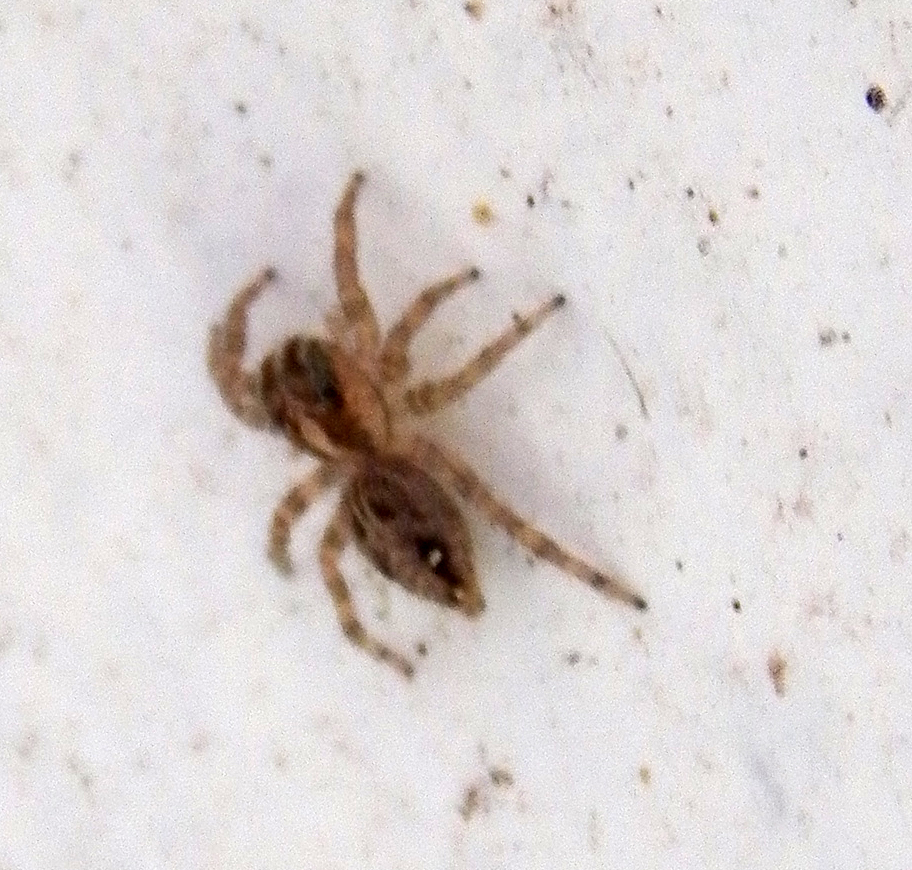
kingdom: Animalia
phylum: Arthropoda
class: Arachnida
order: Araneae
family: Salticidae
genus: Plexippus
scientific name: Plexippus paykulli
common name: Pantropical jumper
